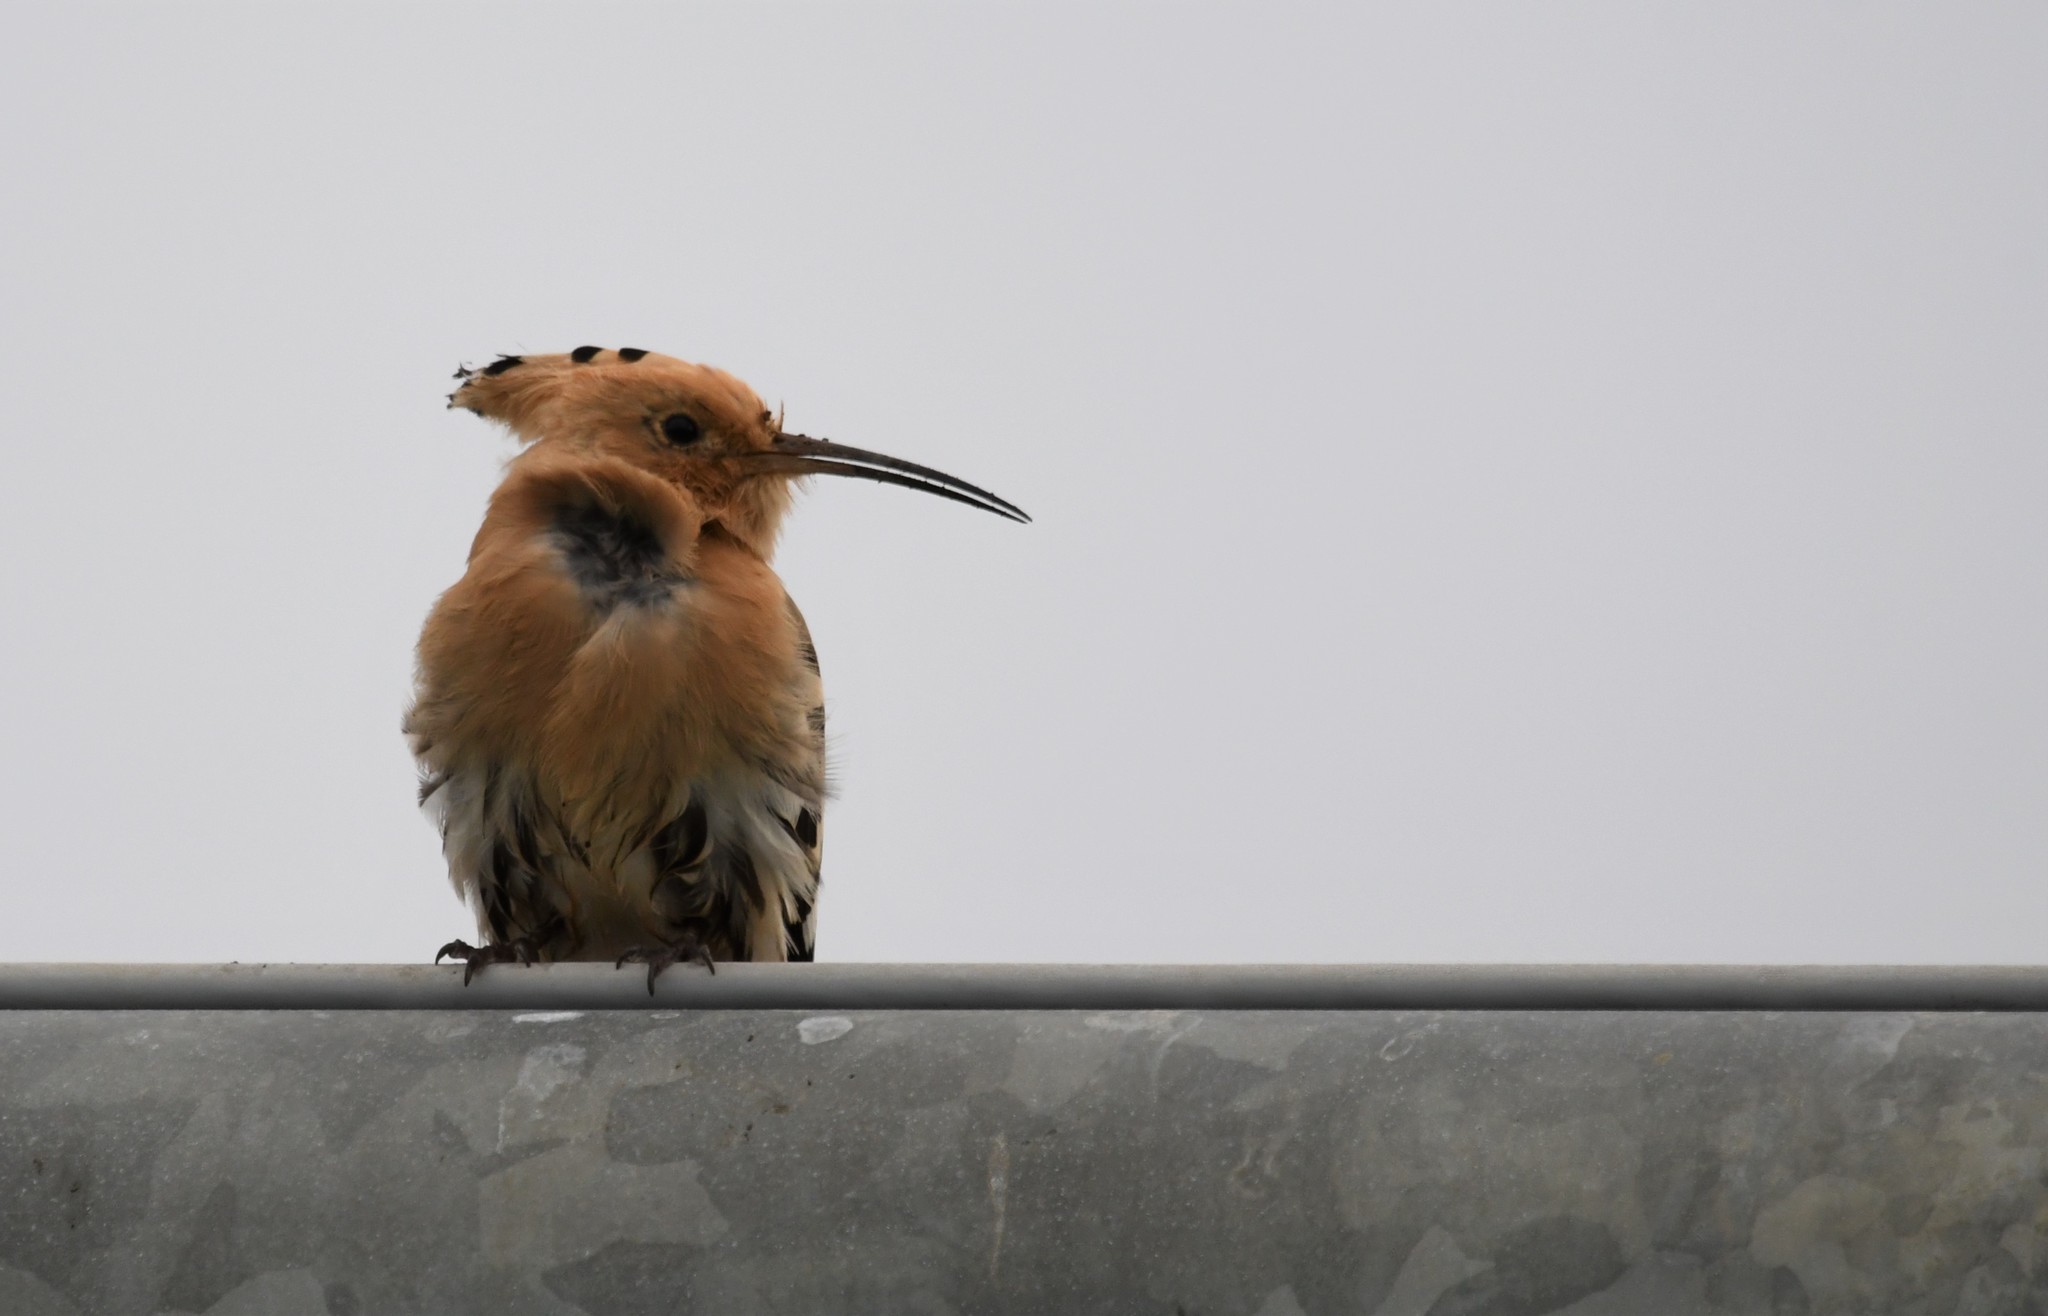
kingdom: Animalia
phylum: Chordata
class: Aves
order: Bucerotiformes
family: Upupidae
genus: Upupa
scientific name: Upupa epops
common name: Eurasian hoopoe
